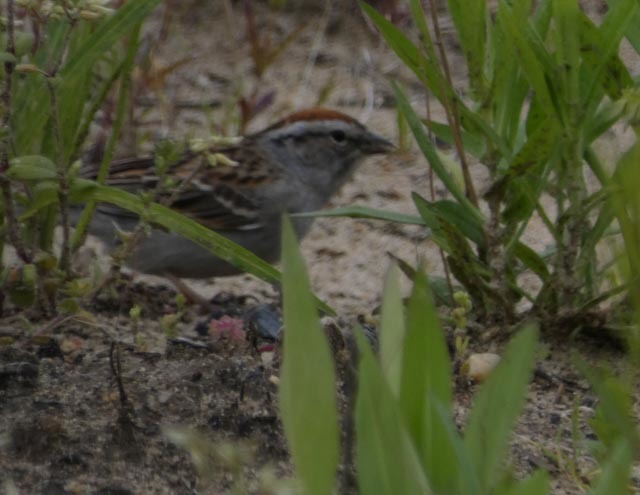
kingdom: Animalia
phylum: Chordata
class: Aves
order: Passeriformes
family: Passerellidae
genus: Spizella
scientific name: Spizella passerina
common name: Chipping sparrow
